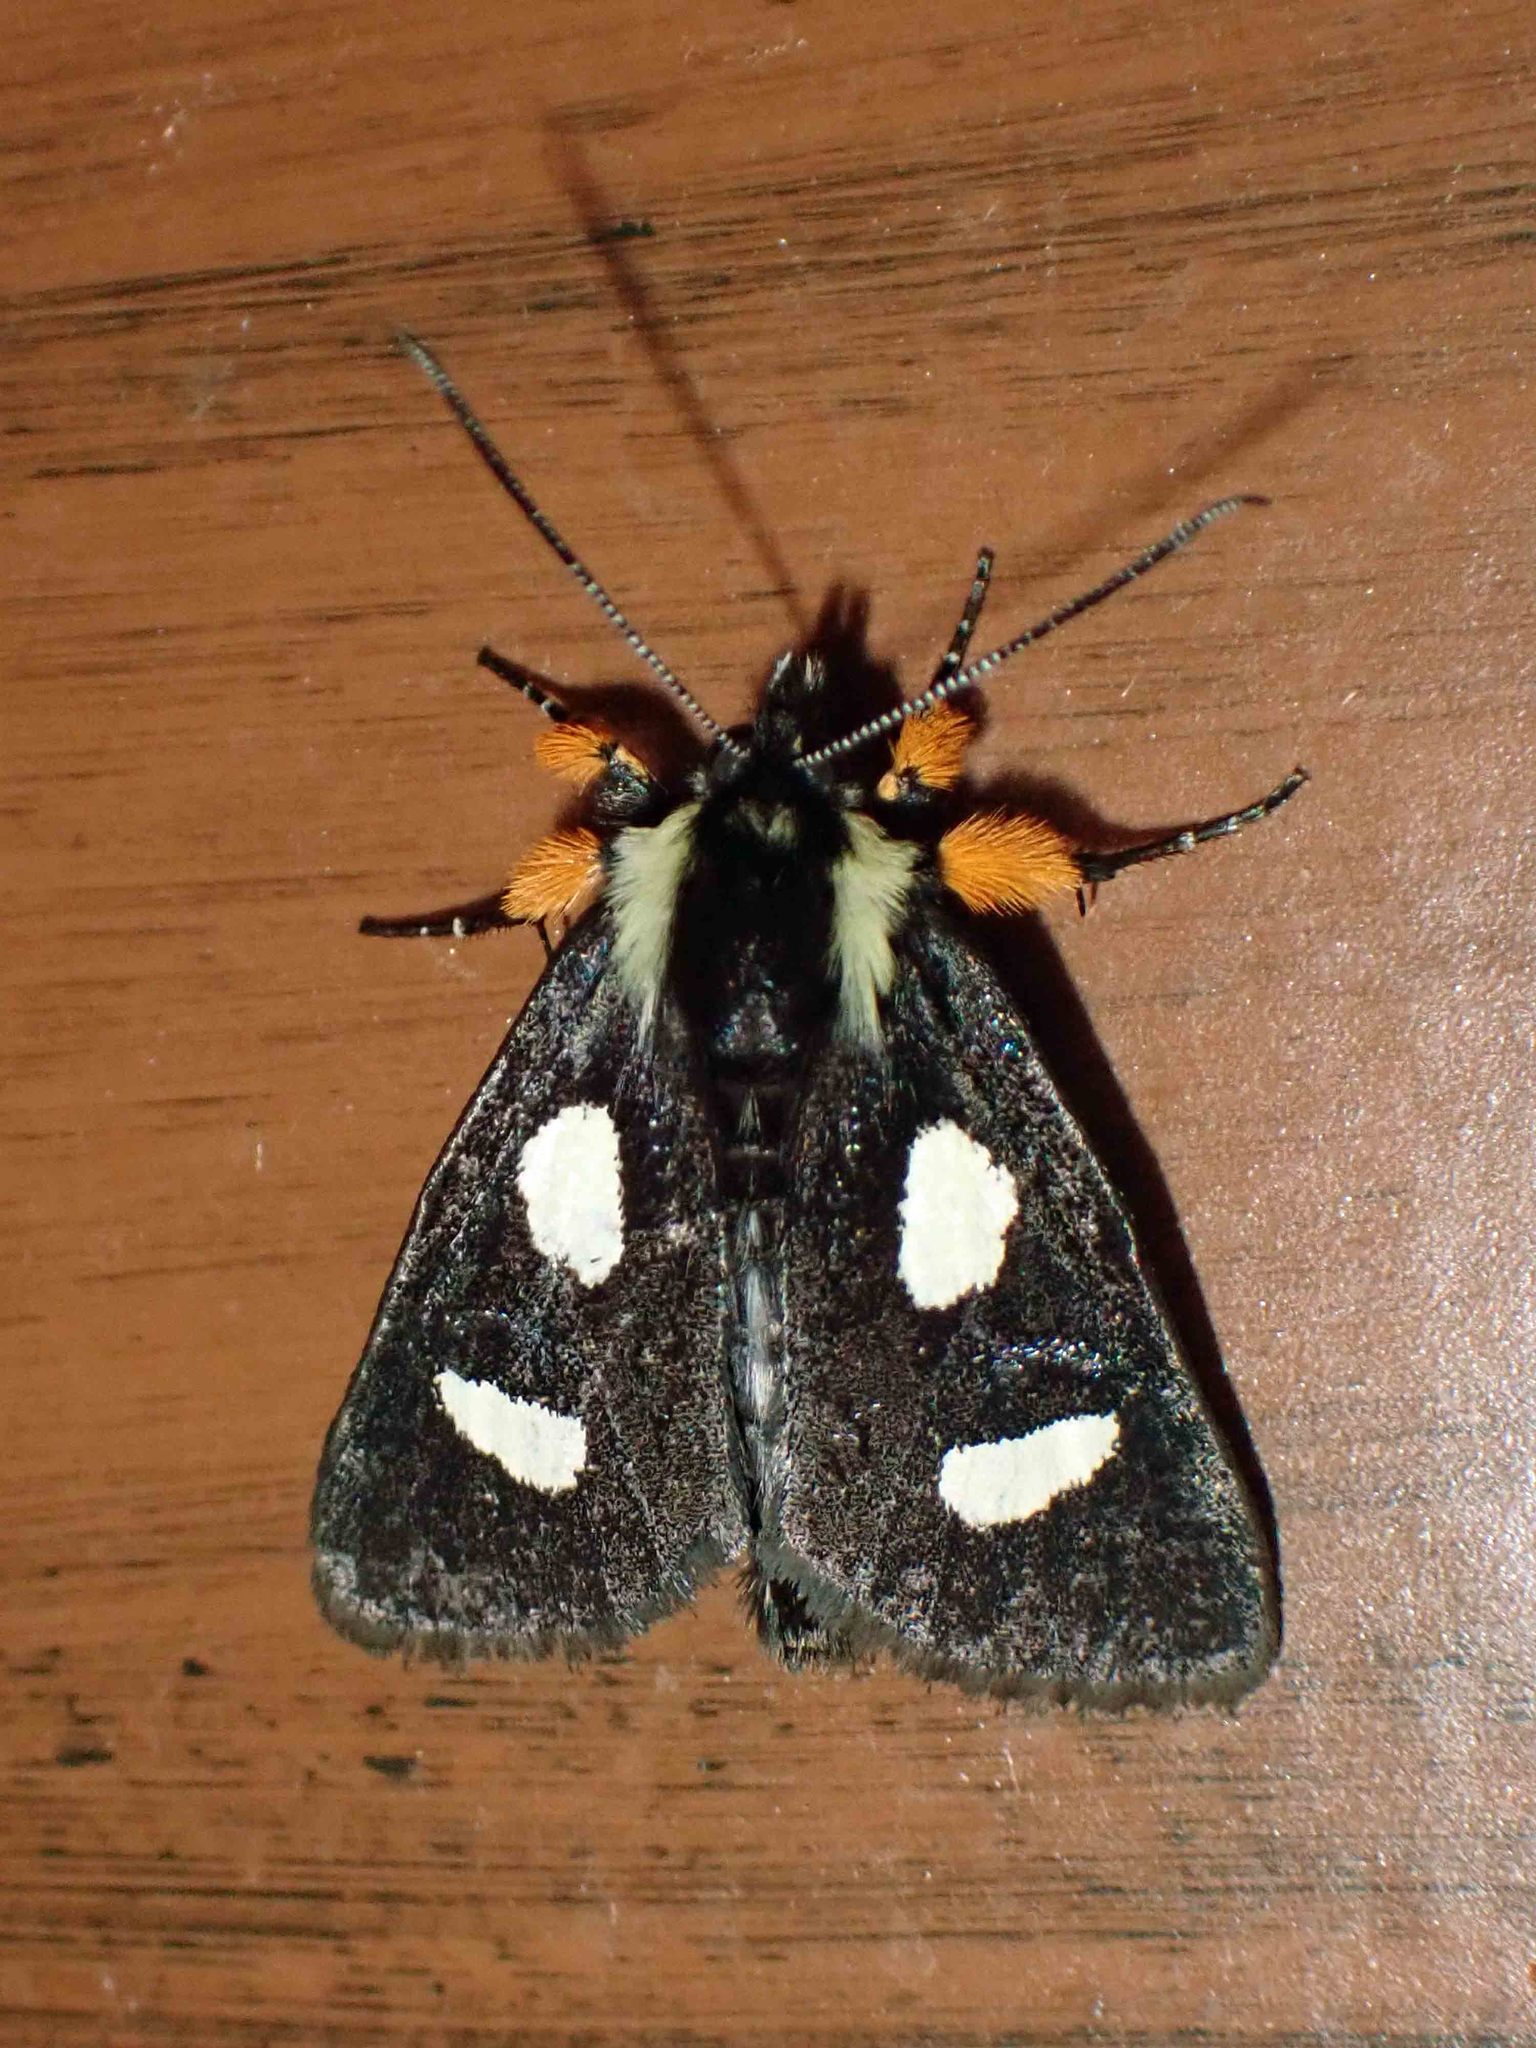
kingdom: Animalia
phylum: Arthropoda
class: Insecta
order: Lepidoptera
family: Noctuidae
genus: Alypia
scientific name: Alypia langtonii
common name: Fireweed caterpillar
